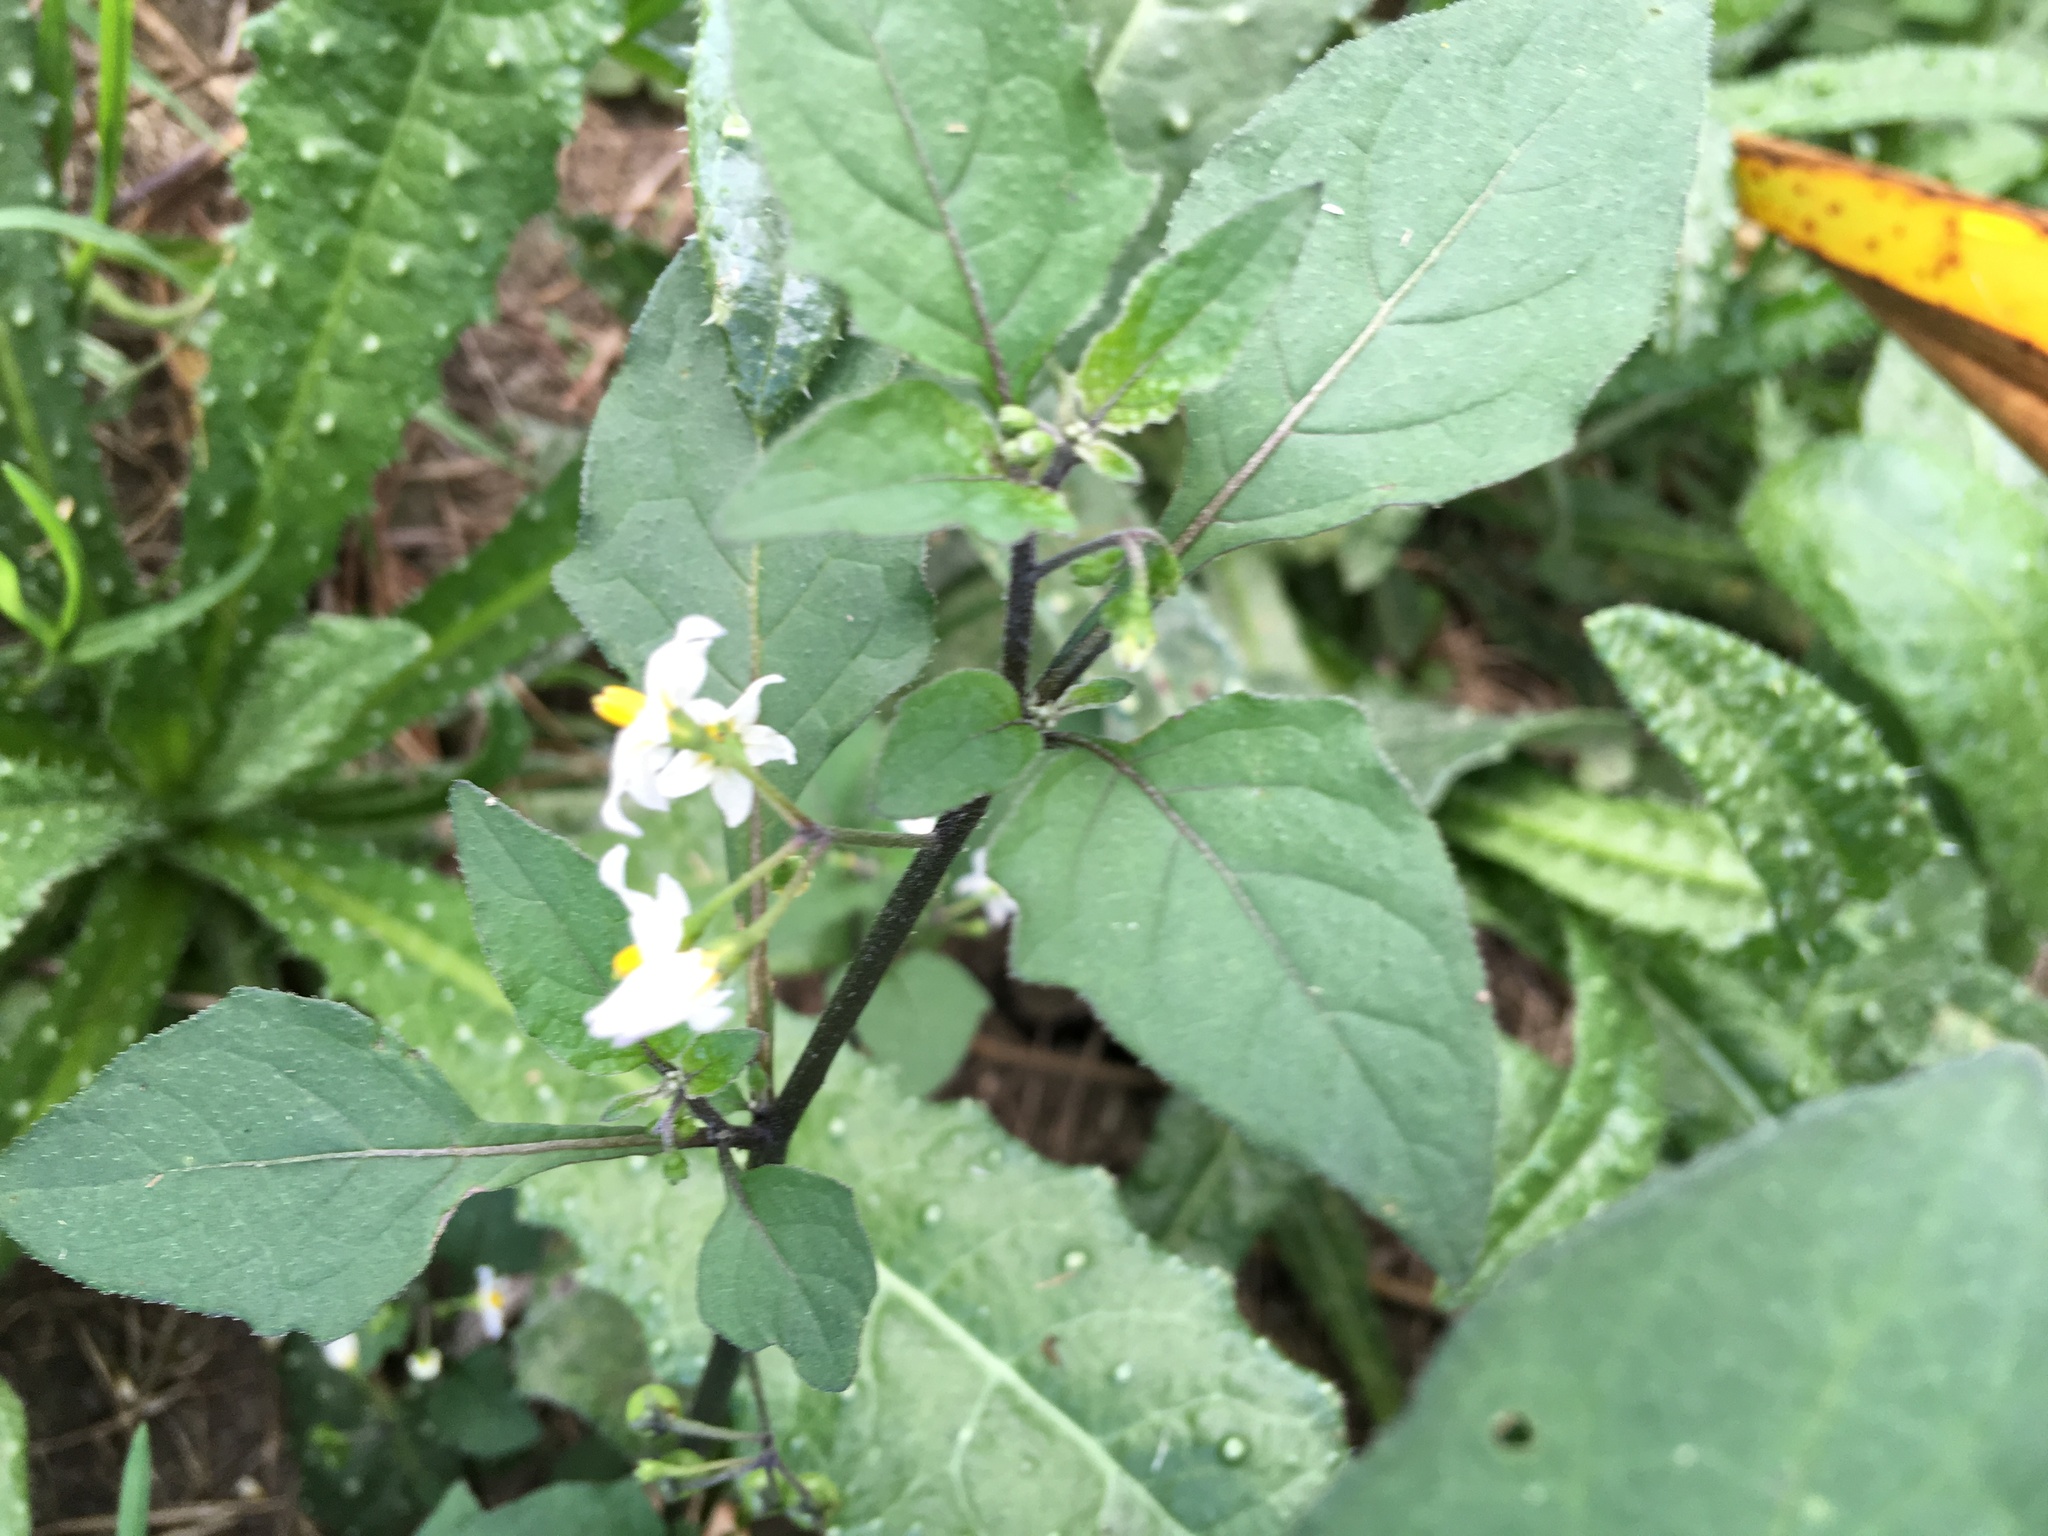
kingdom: Plantae
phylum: Tracheophyta
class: Magnoliopsida
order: Solanales
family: Solanaceae
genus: Solanum
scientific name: Solanum nigrum
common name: Black nightshade
